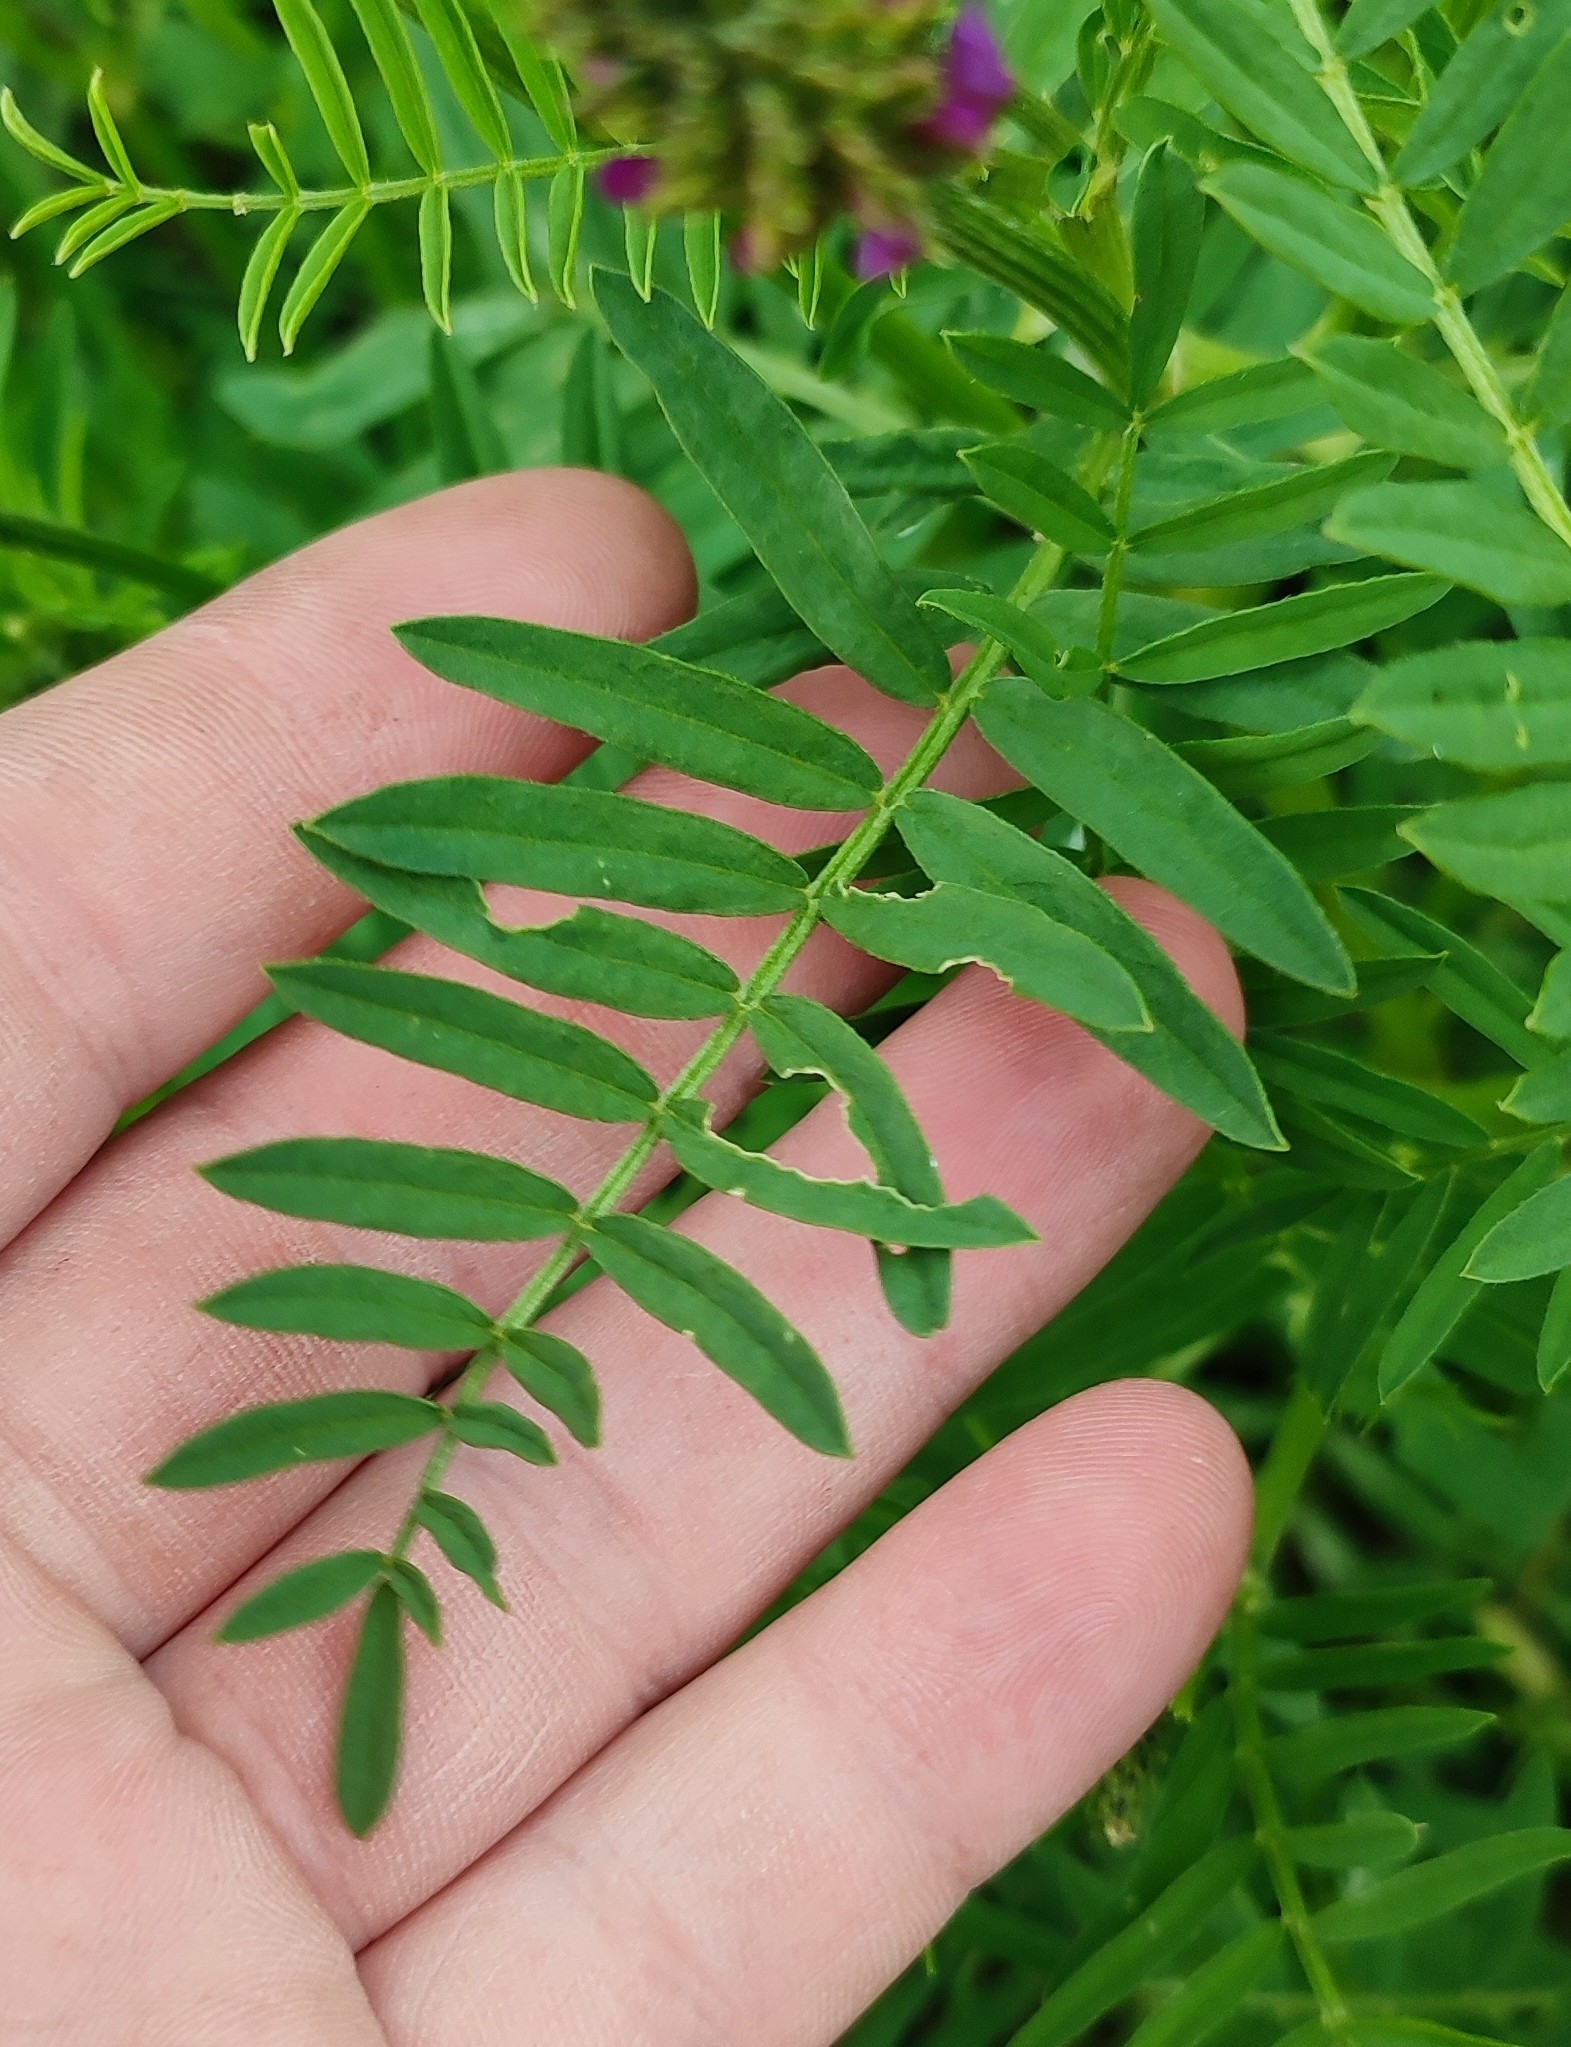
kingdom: Plantae
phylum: Tracheophyta
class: Magnoliopsida
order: Fabales
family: Fabaceae
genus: Astragalus
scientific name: Astragalus onobrychis
